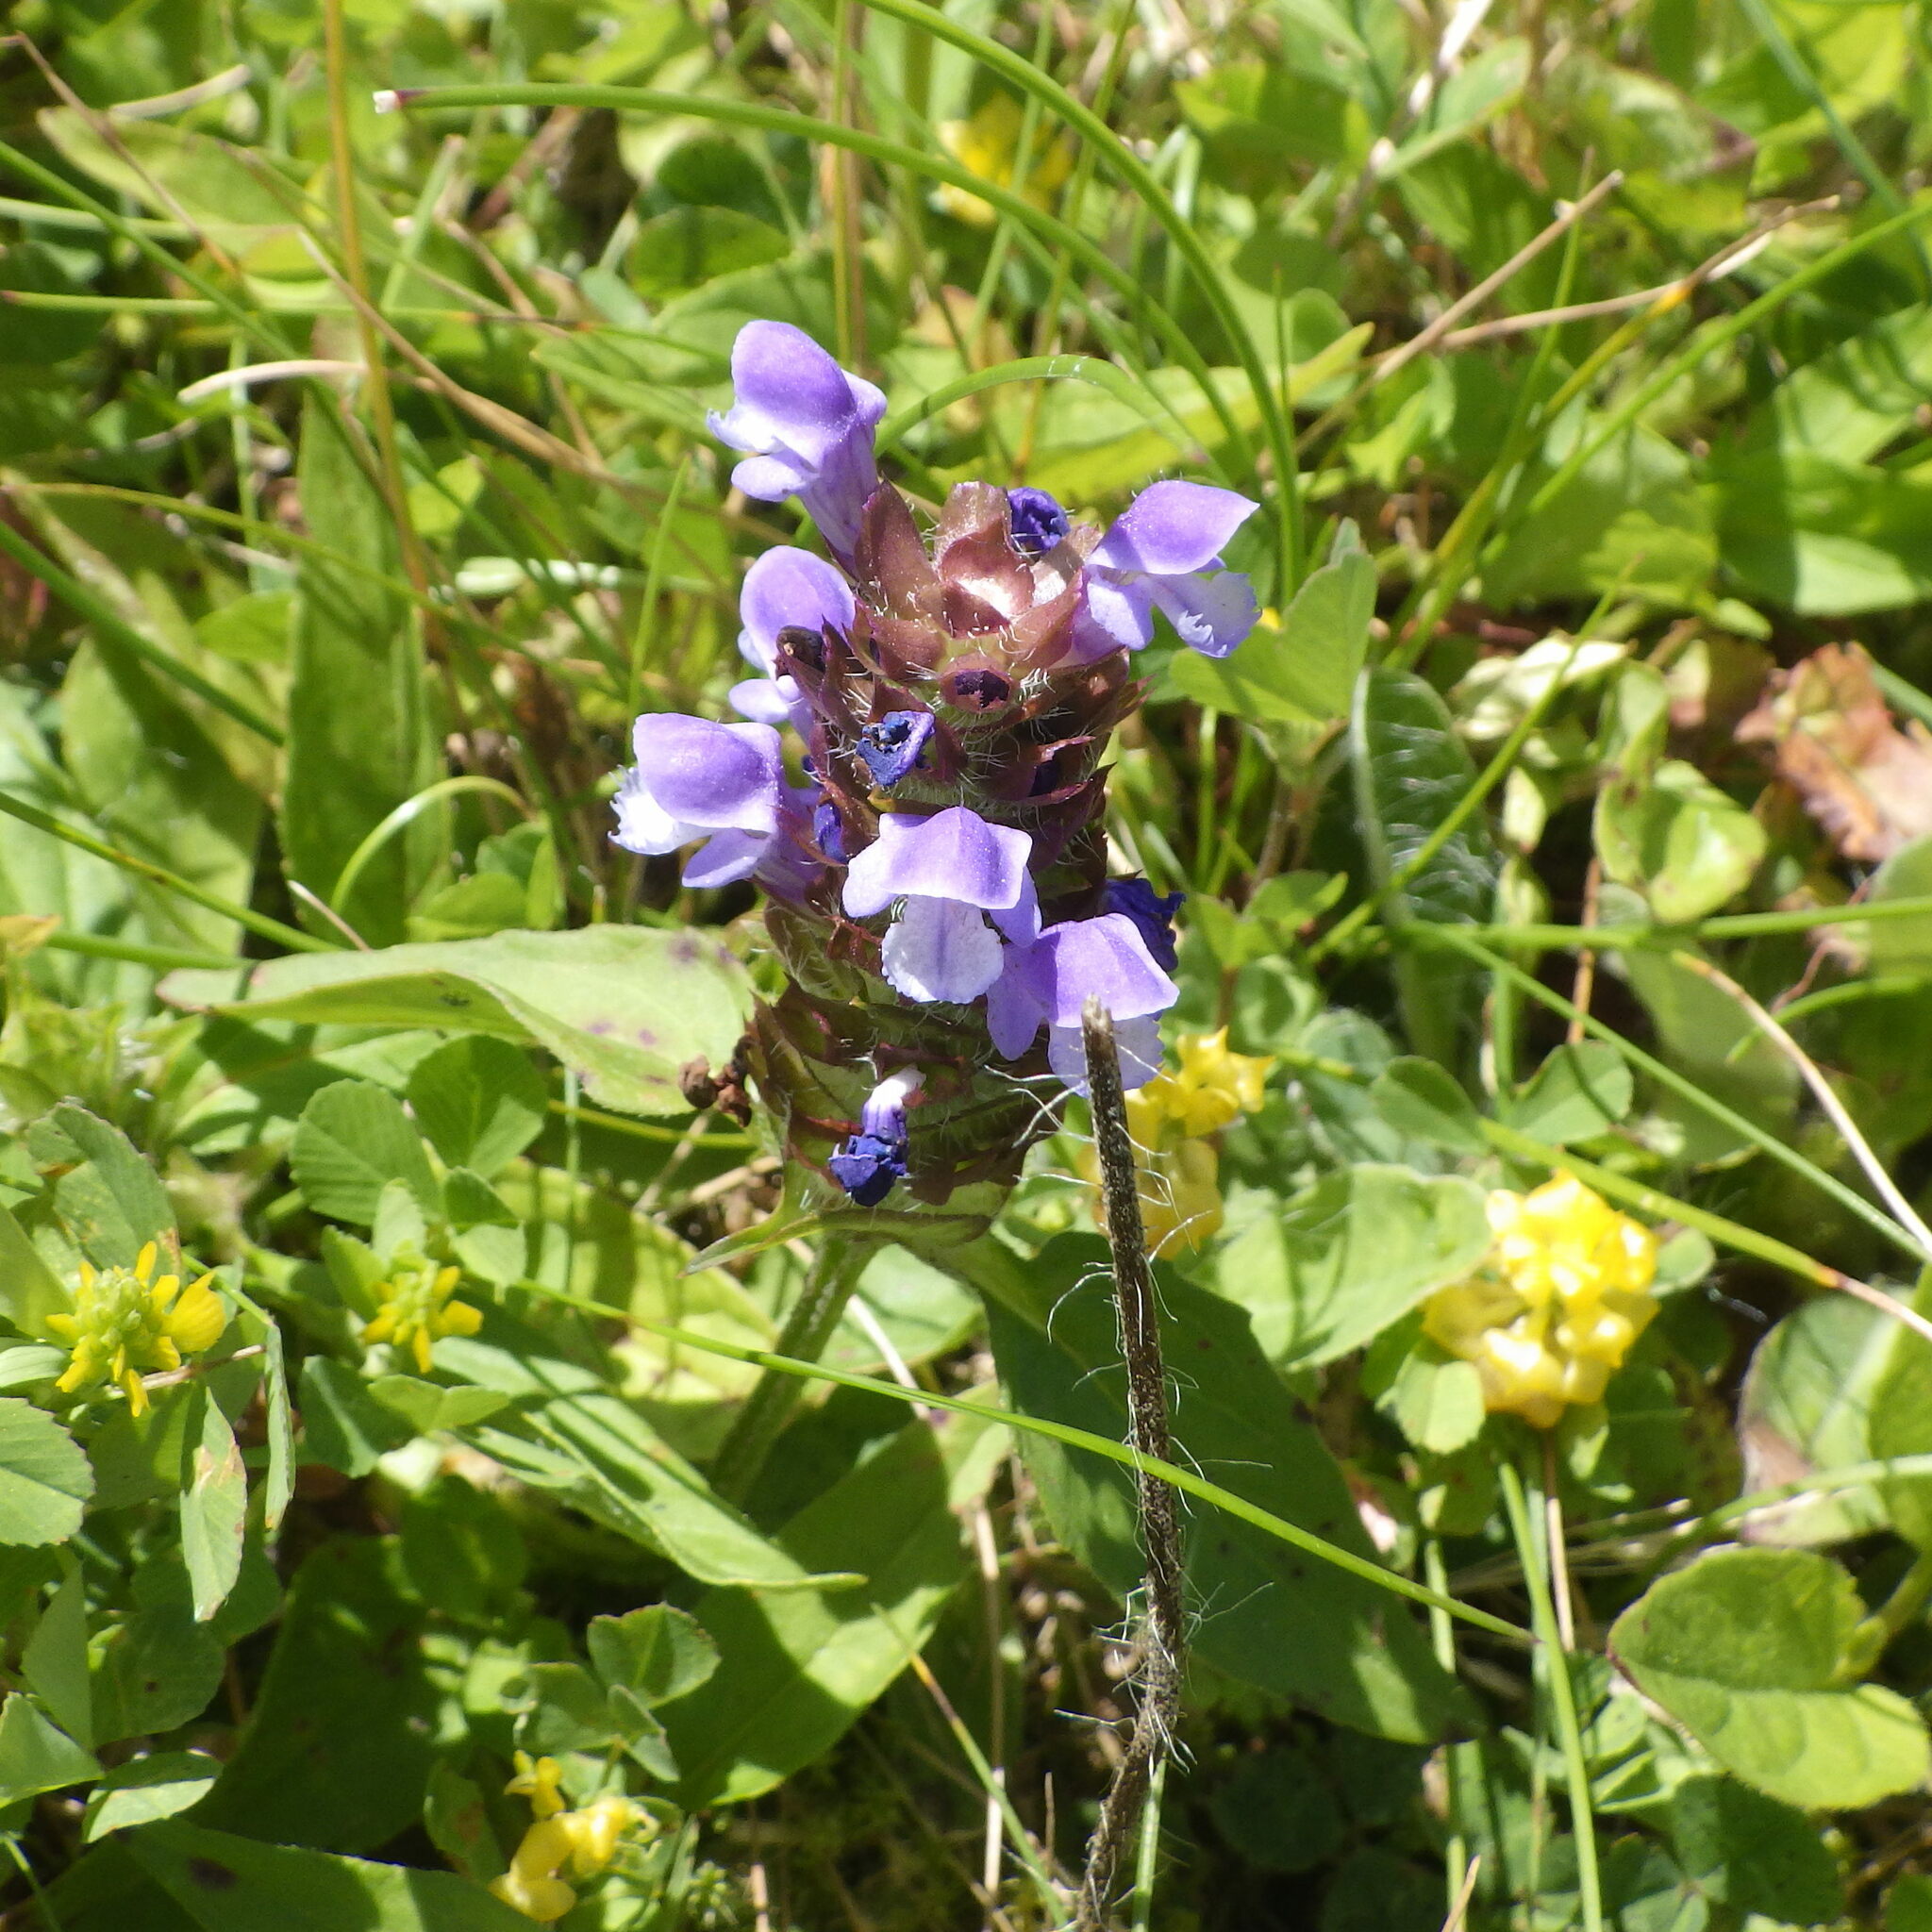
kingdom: Plantae
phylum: Tracheophyta
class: Magnoliopsida
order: Lamiales
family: Lamiaceae
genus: Prunella
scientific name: Prunella vulgaris
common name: Heal-all
